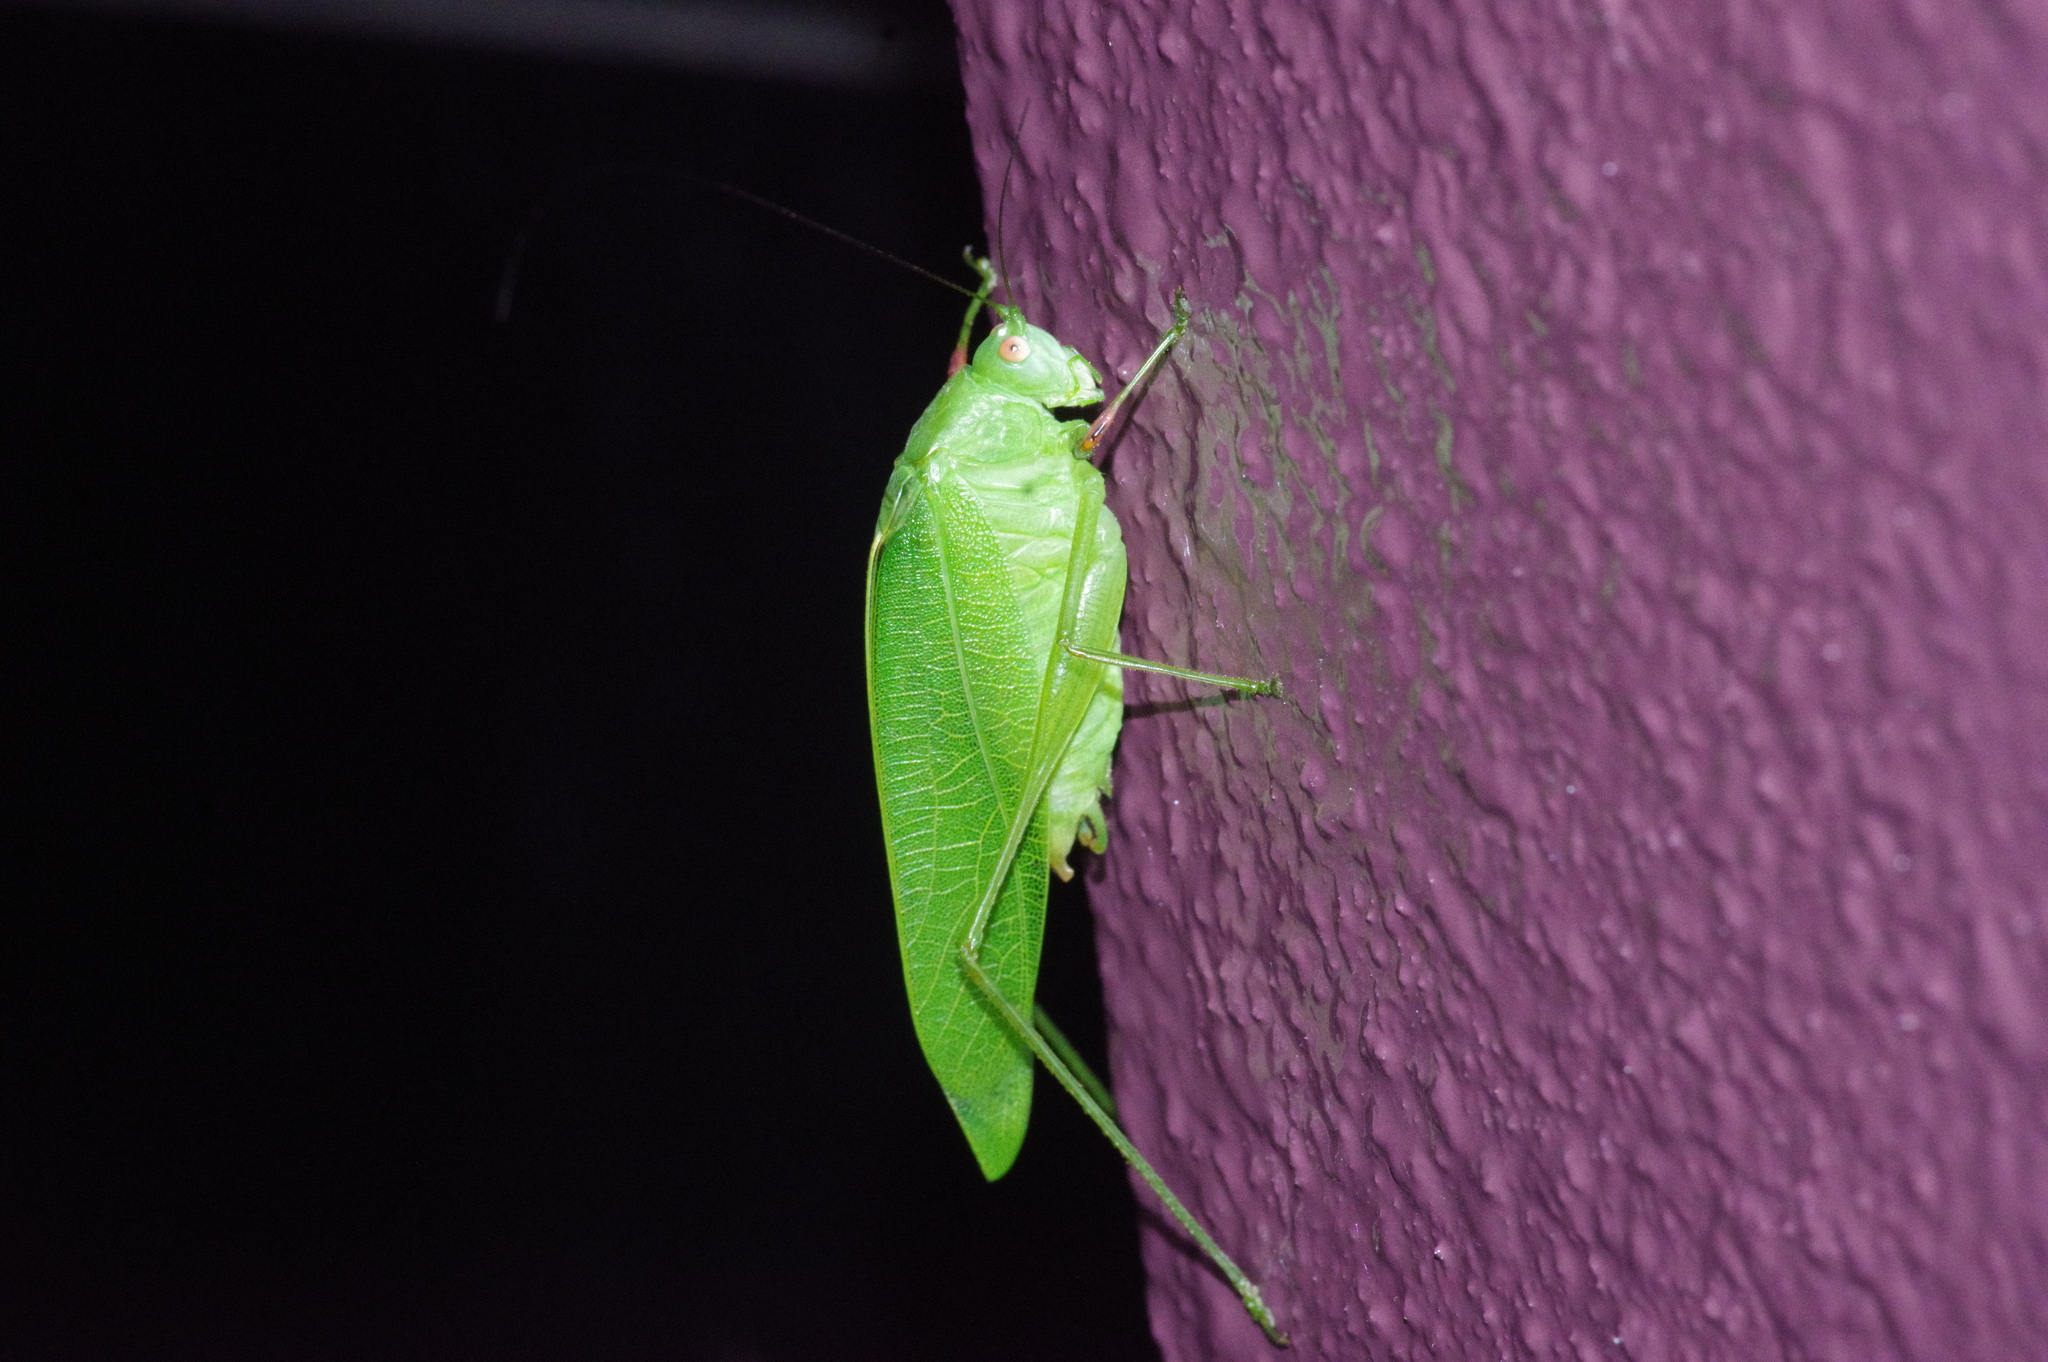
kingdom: Animalia
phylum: Arthropoda
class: Insecta
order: Orthoptera
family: Tettigoniidae
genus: Phaulula
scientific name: Phaulula macilenta
